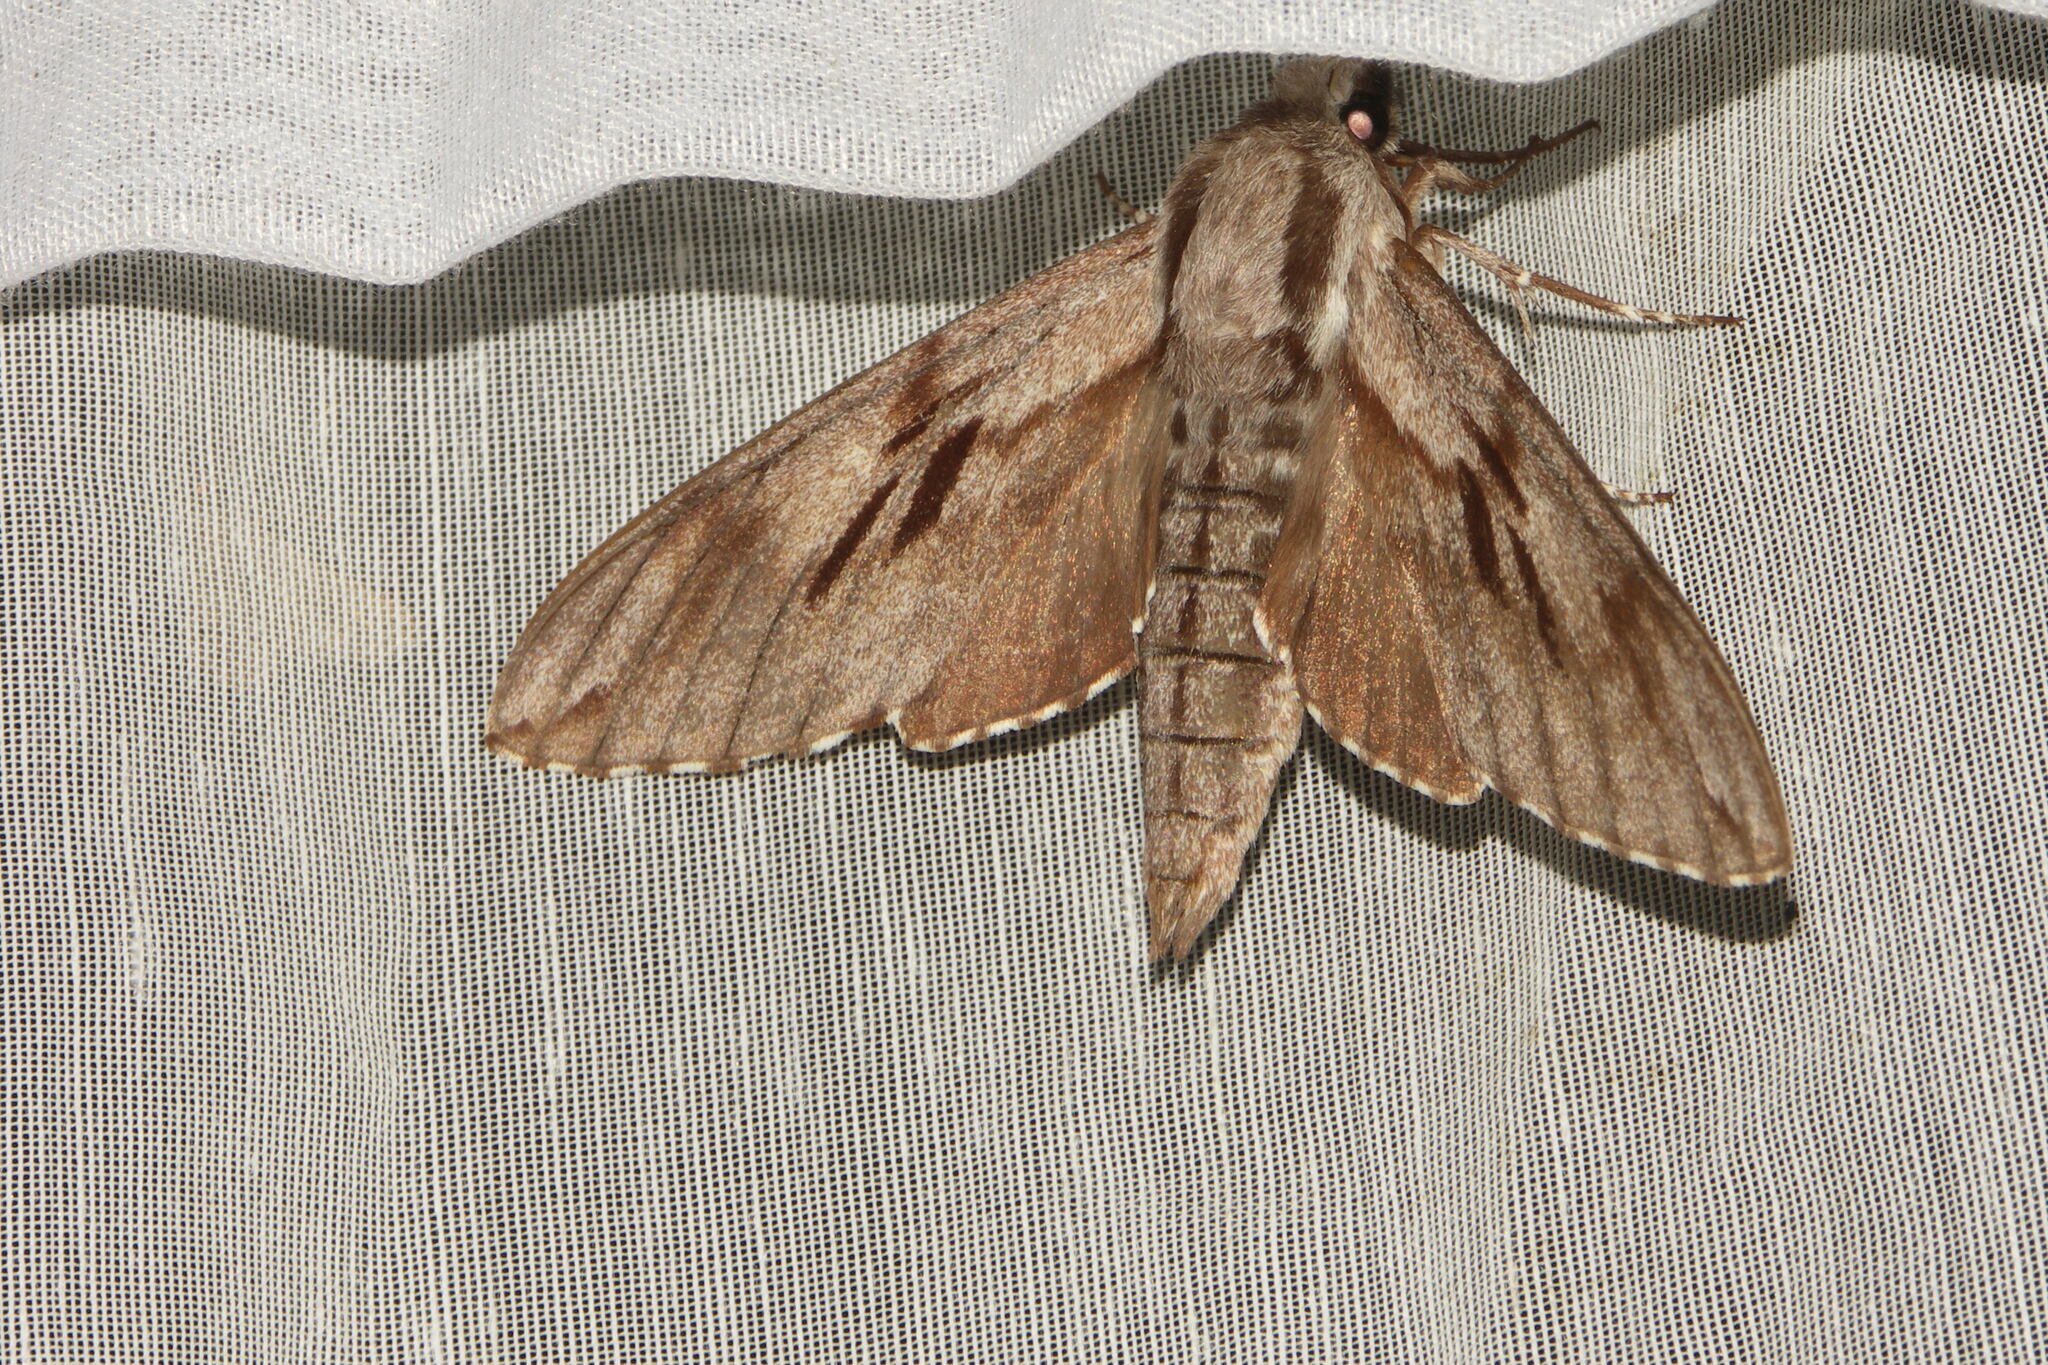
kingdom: Animalia
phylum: Arthropoda
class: Insecta
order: Lepidoptera
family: Sphingidae
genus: Sphinx
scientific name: Sphinx pinastri
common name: Pine hawk-moth
